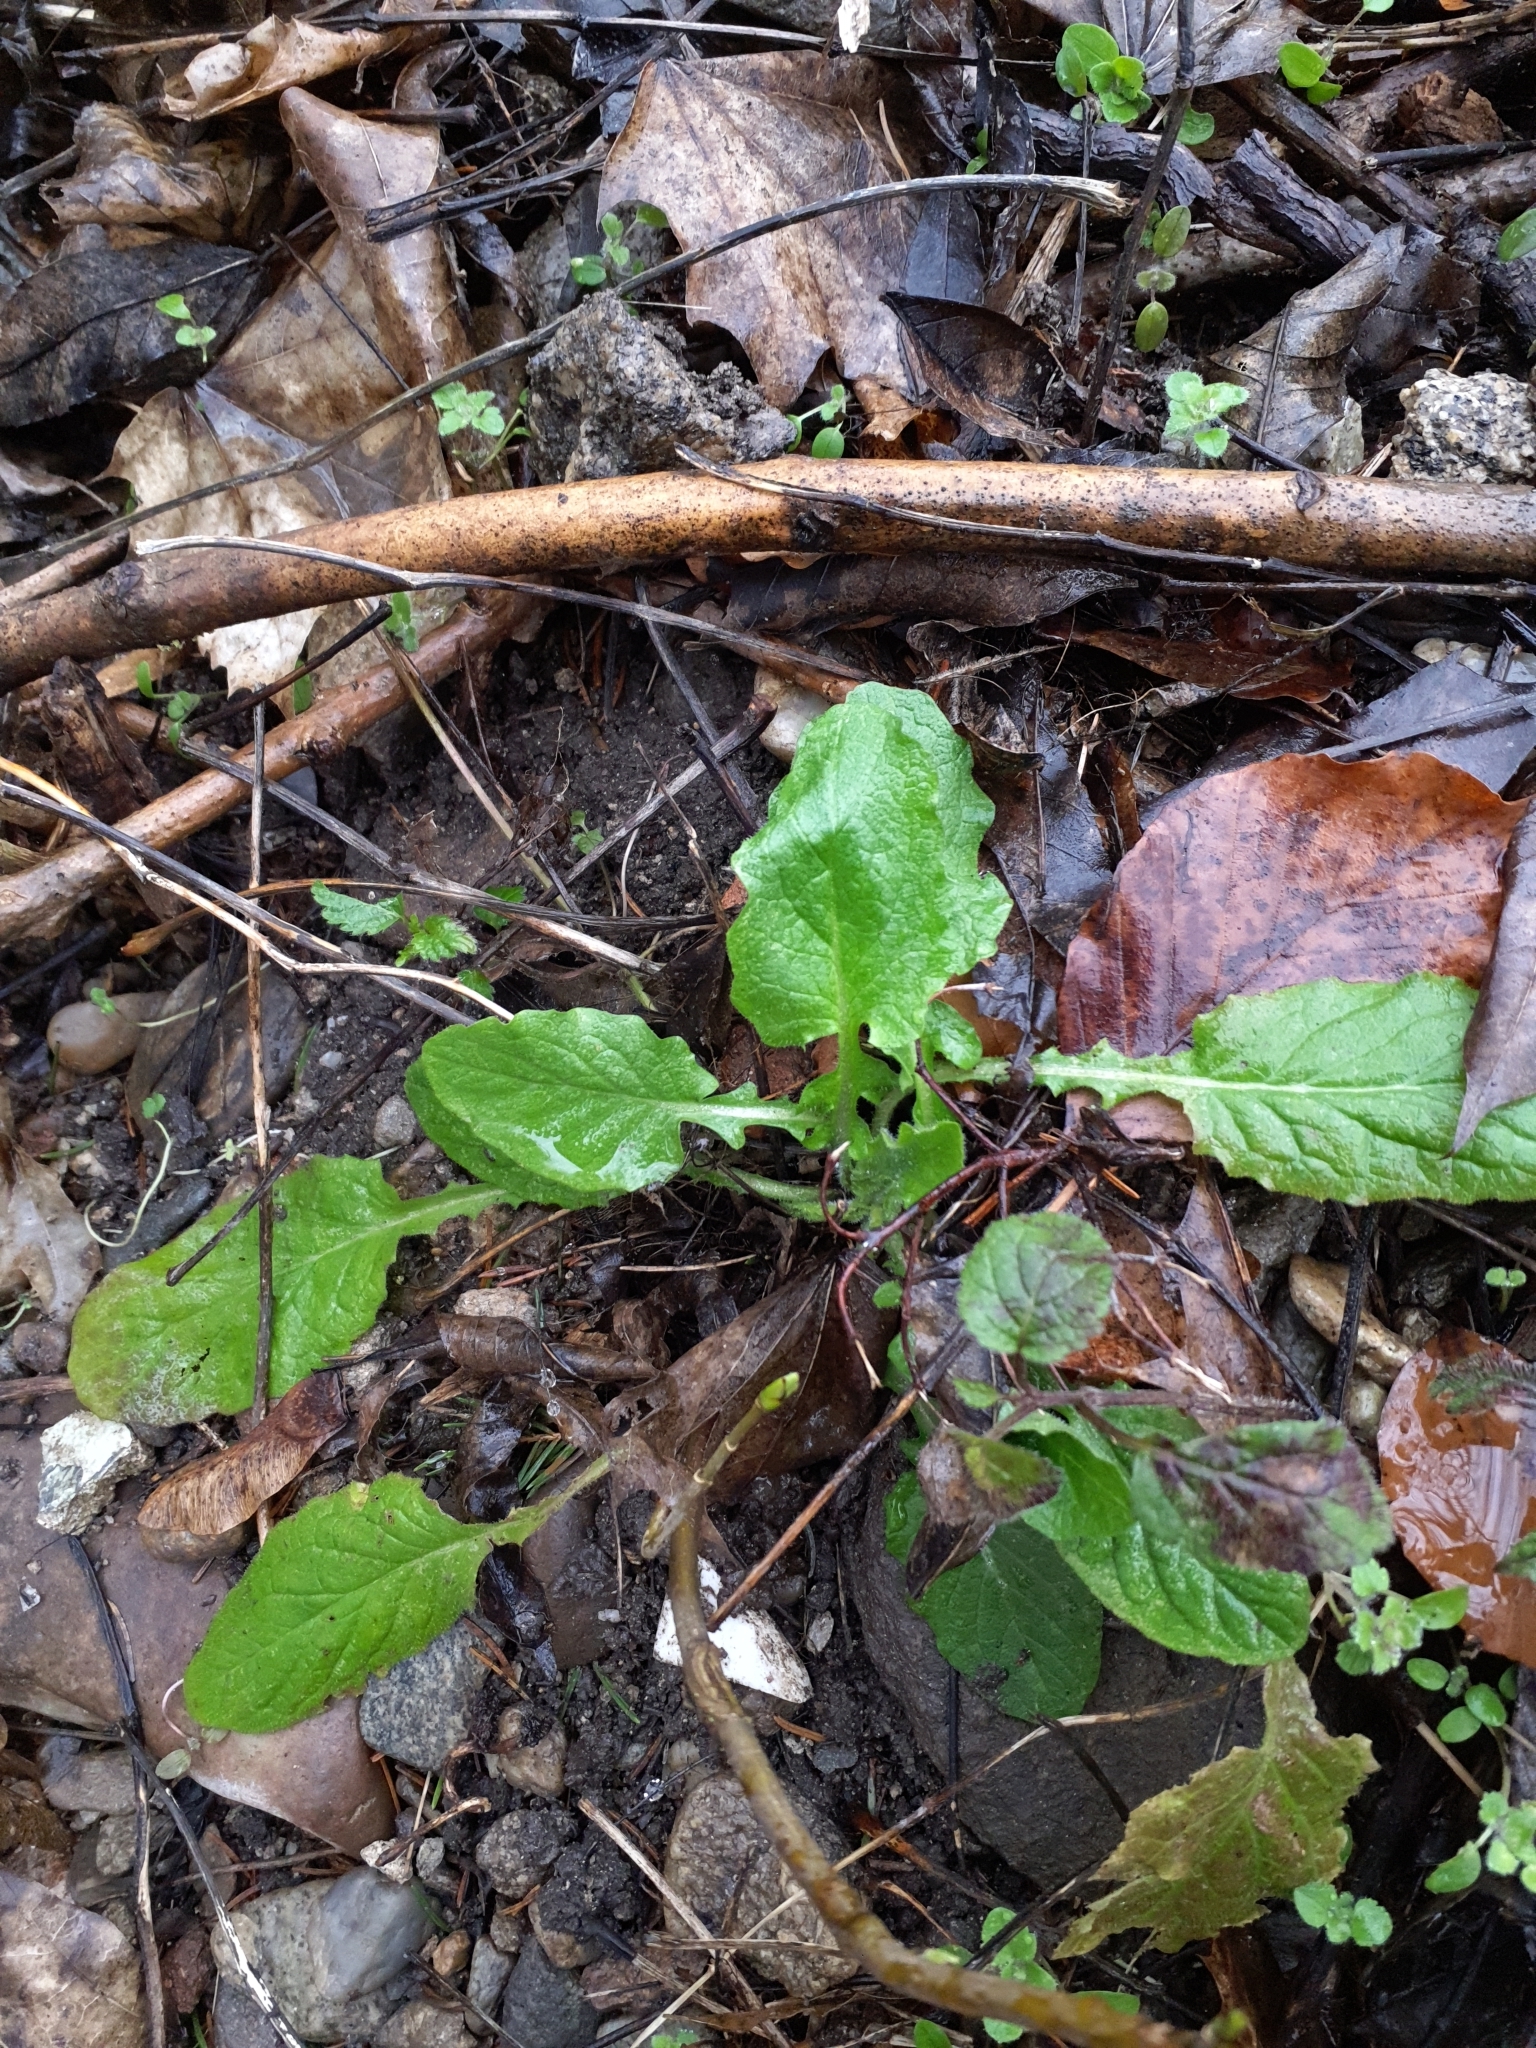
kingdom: Plantae
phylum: Tracheophyta
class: Magnoliopsida
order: Asterales
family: Asteraceae
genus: Lapsana
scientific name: Lapsana communis
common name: Nipplewort
